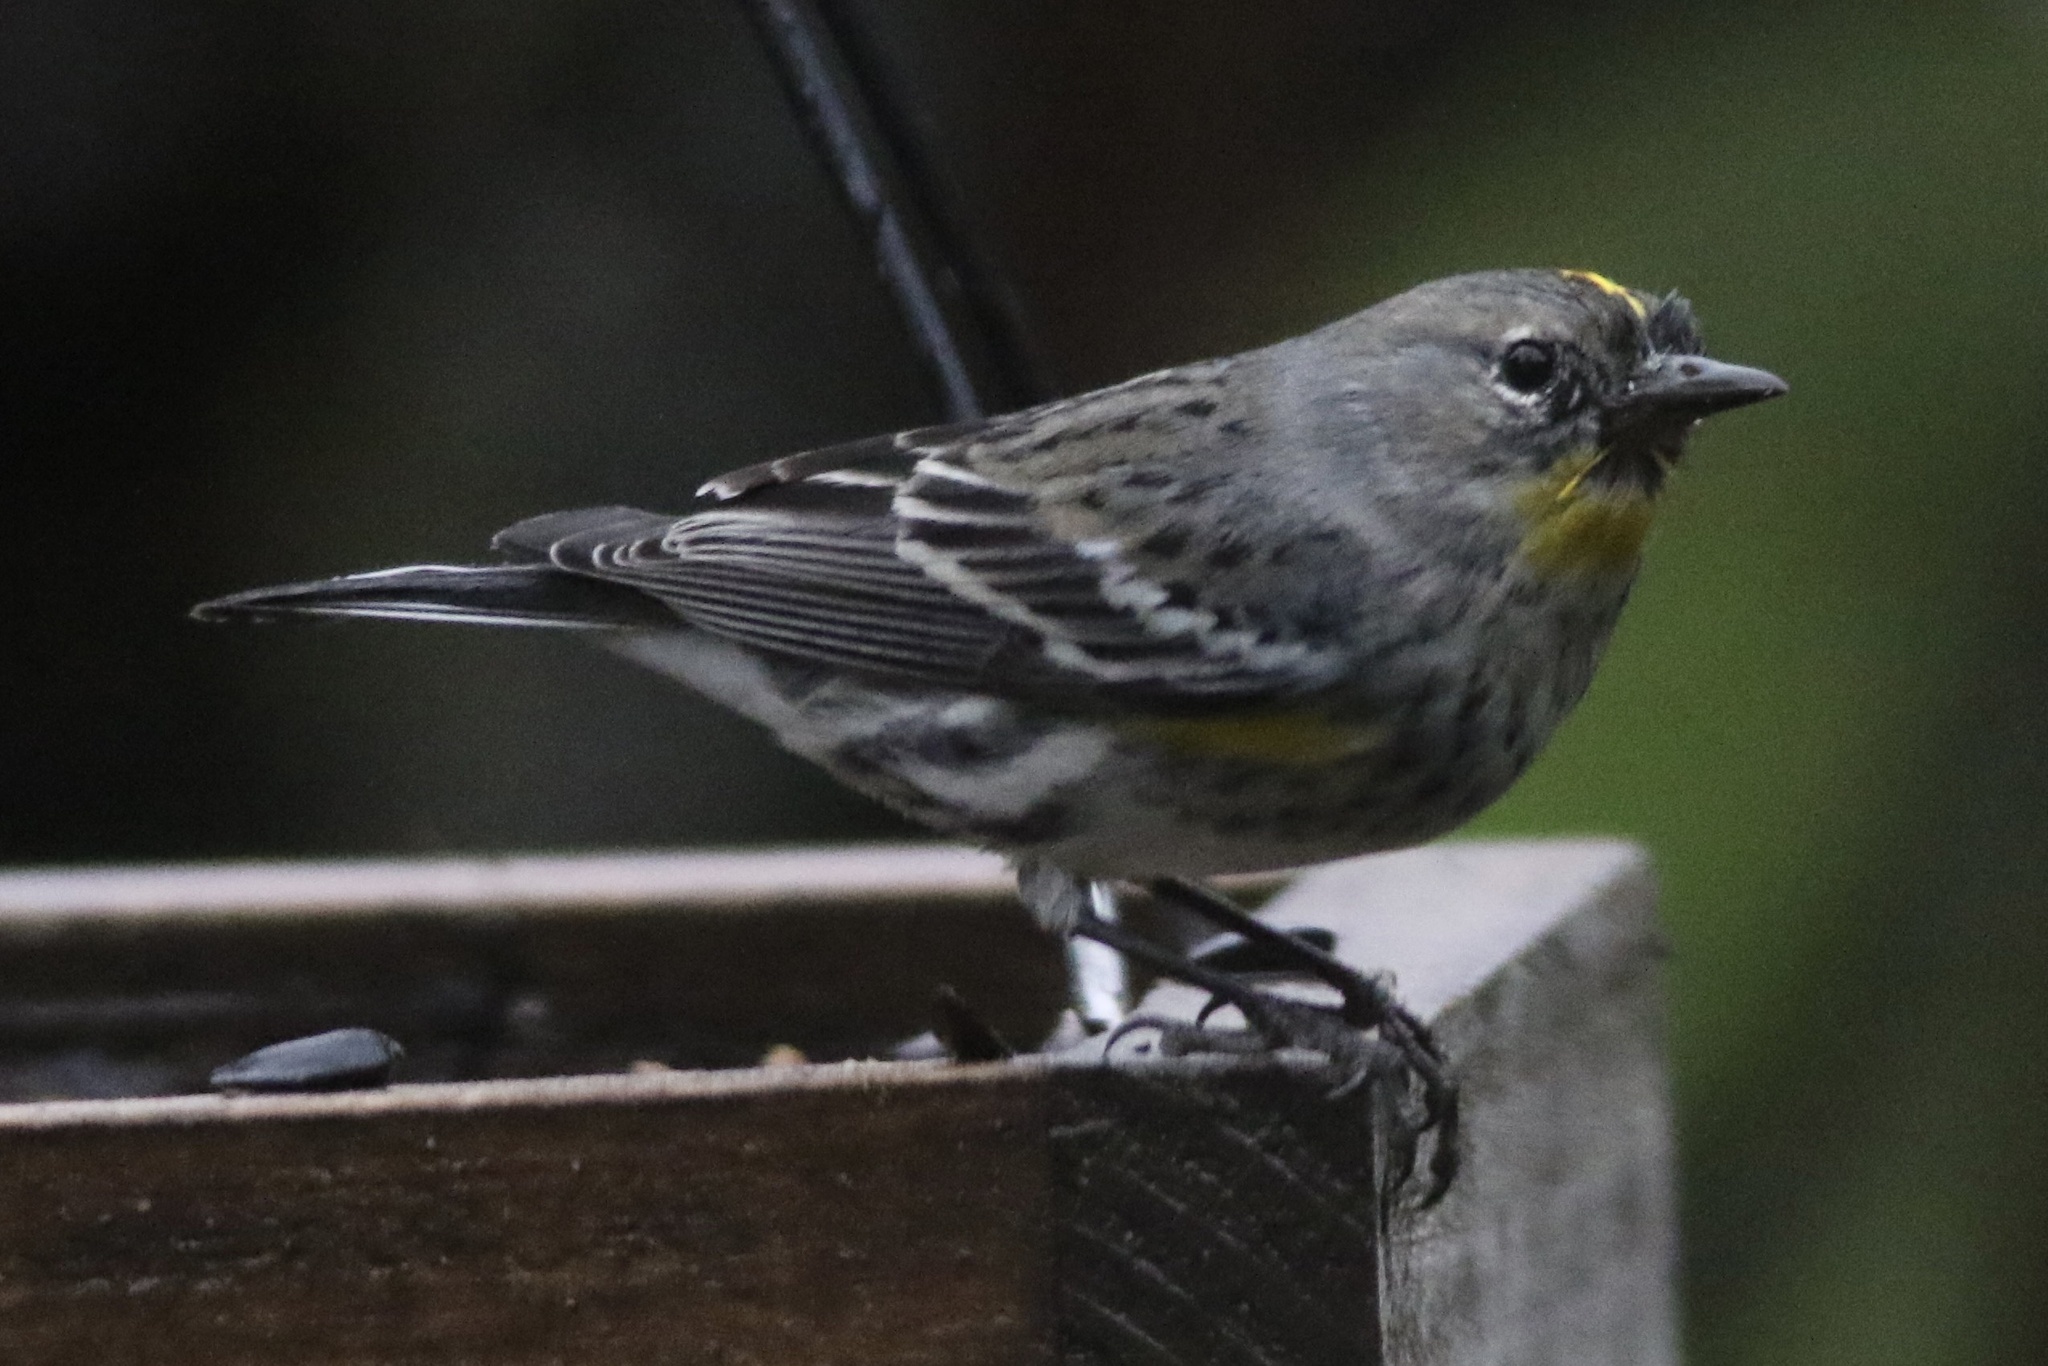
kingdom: Animalia
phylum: Chordata
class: Aves
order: Passeriformes
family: Parulidae
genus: Setophaga
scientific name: Setophaga coronata
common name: Myrtle warbler
